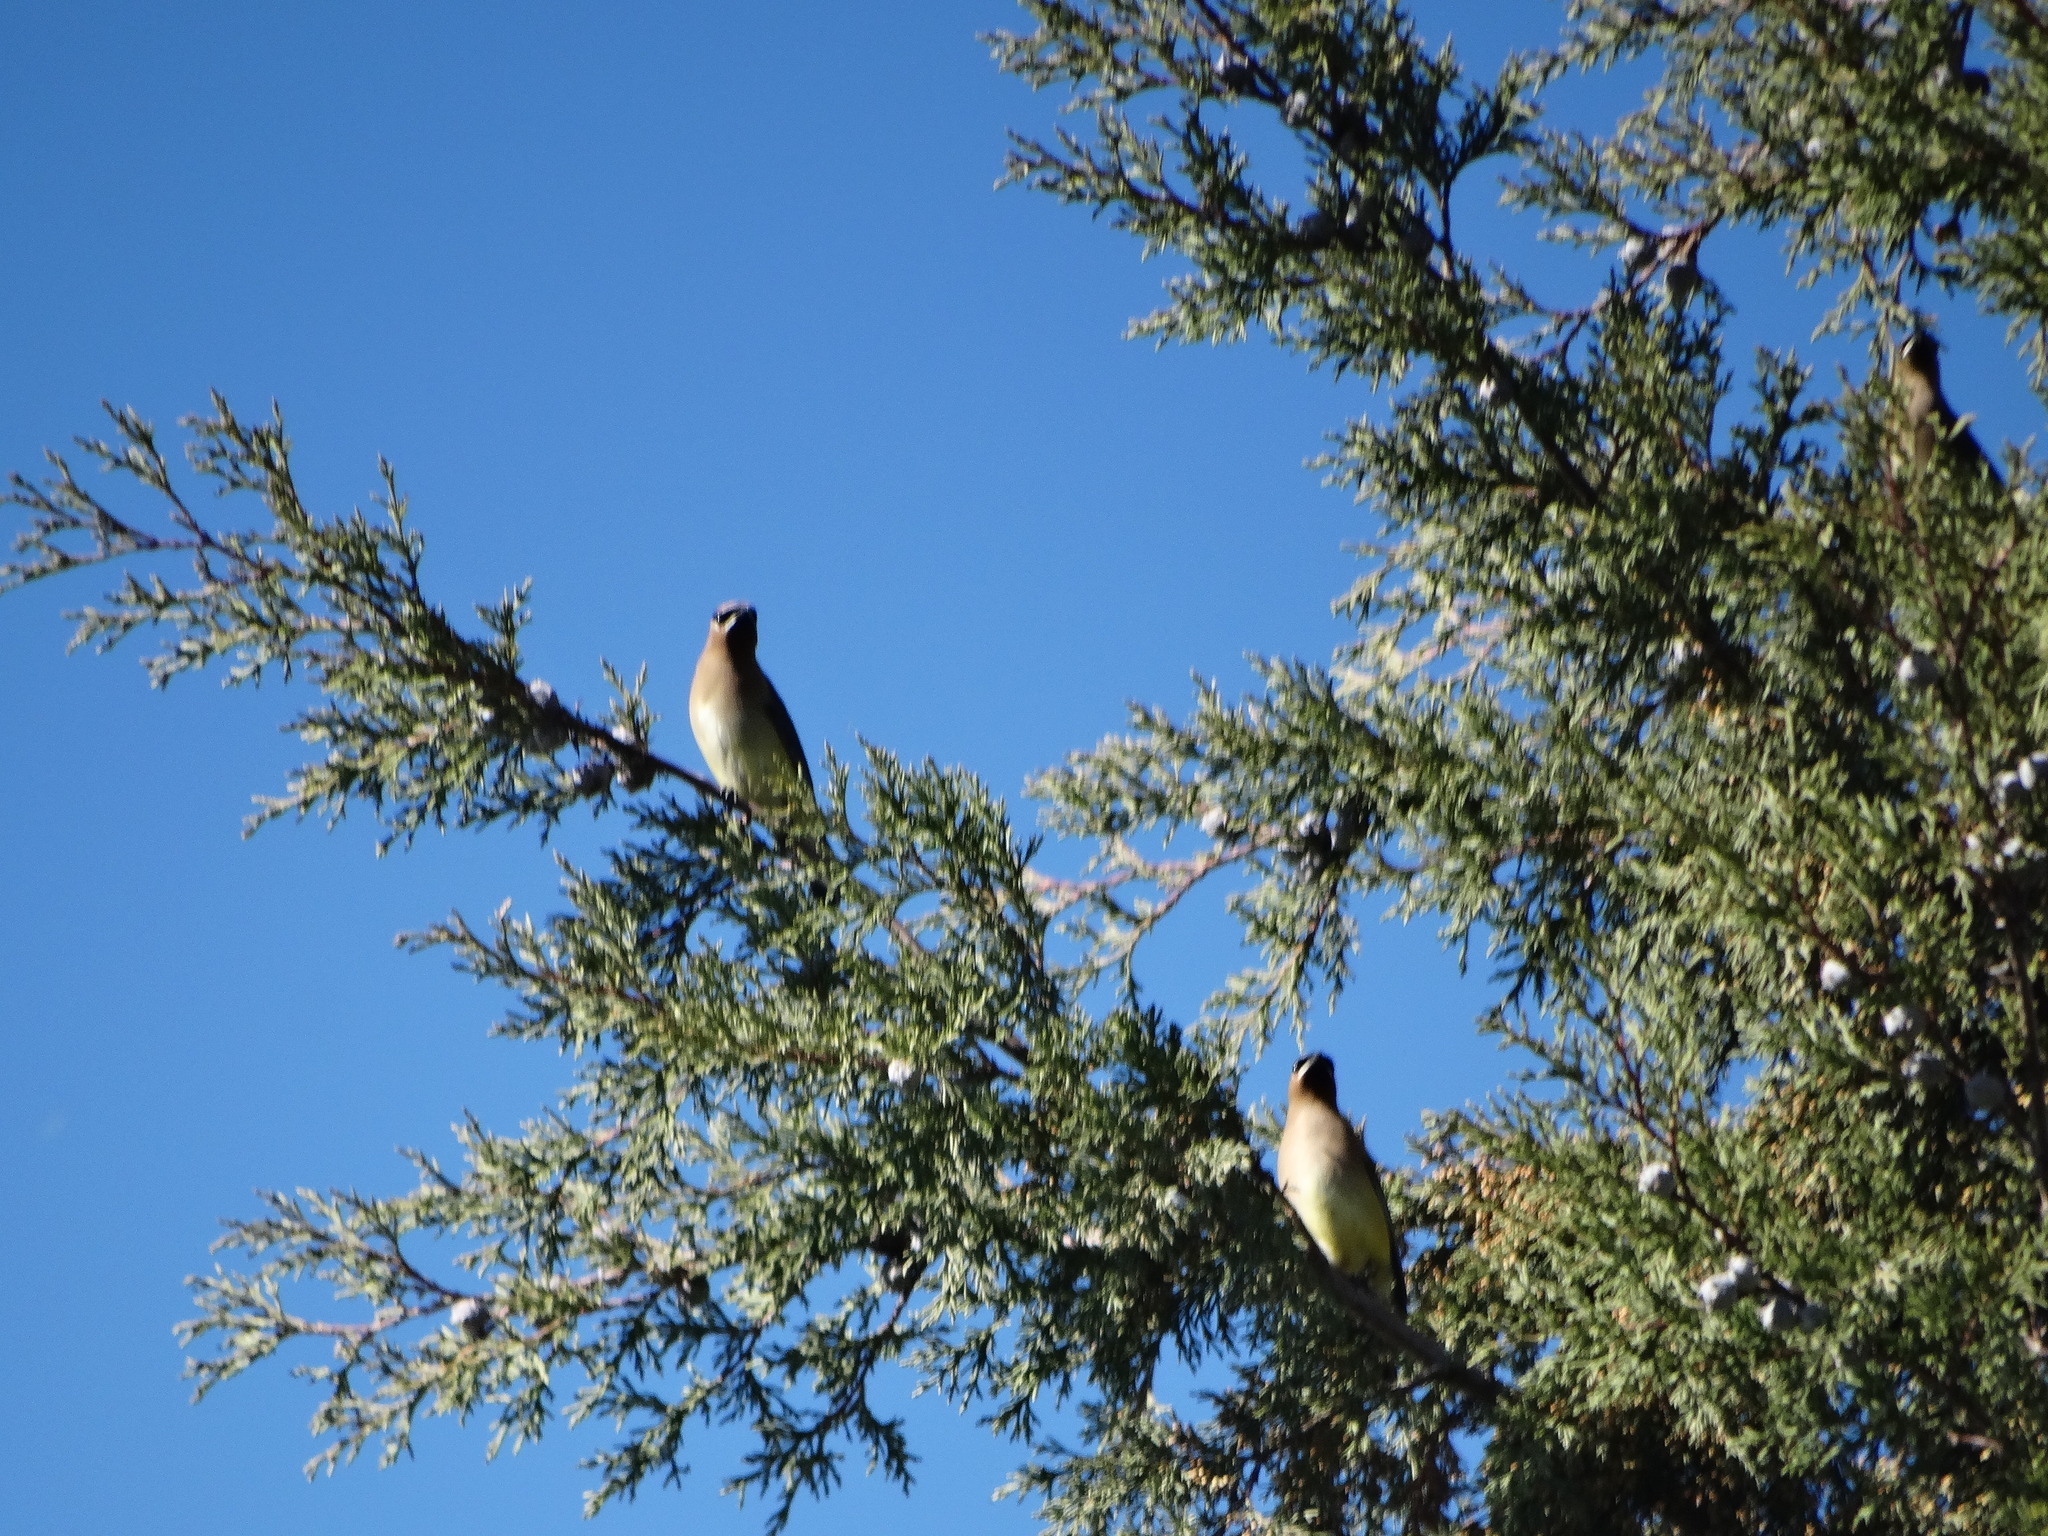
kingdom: Animalia
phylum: Chordata
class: Aves
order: Passeriformes
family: Bombycillidae
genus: Bombycilla
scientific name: Bombycilla cedrorum
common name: Cedar waxwing
